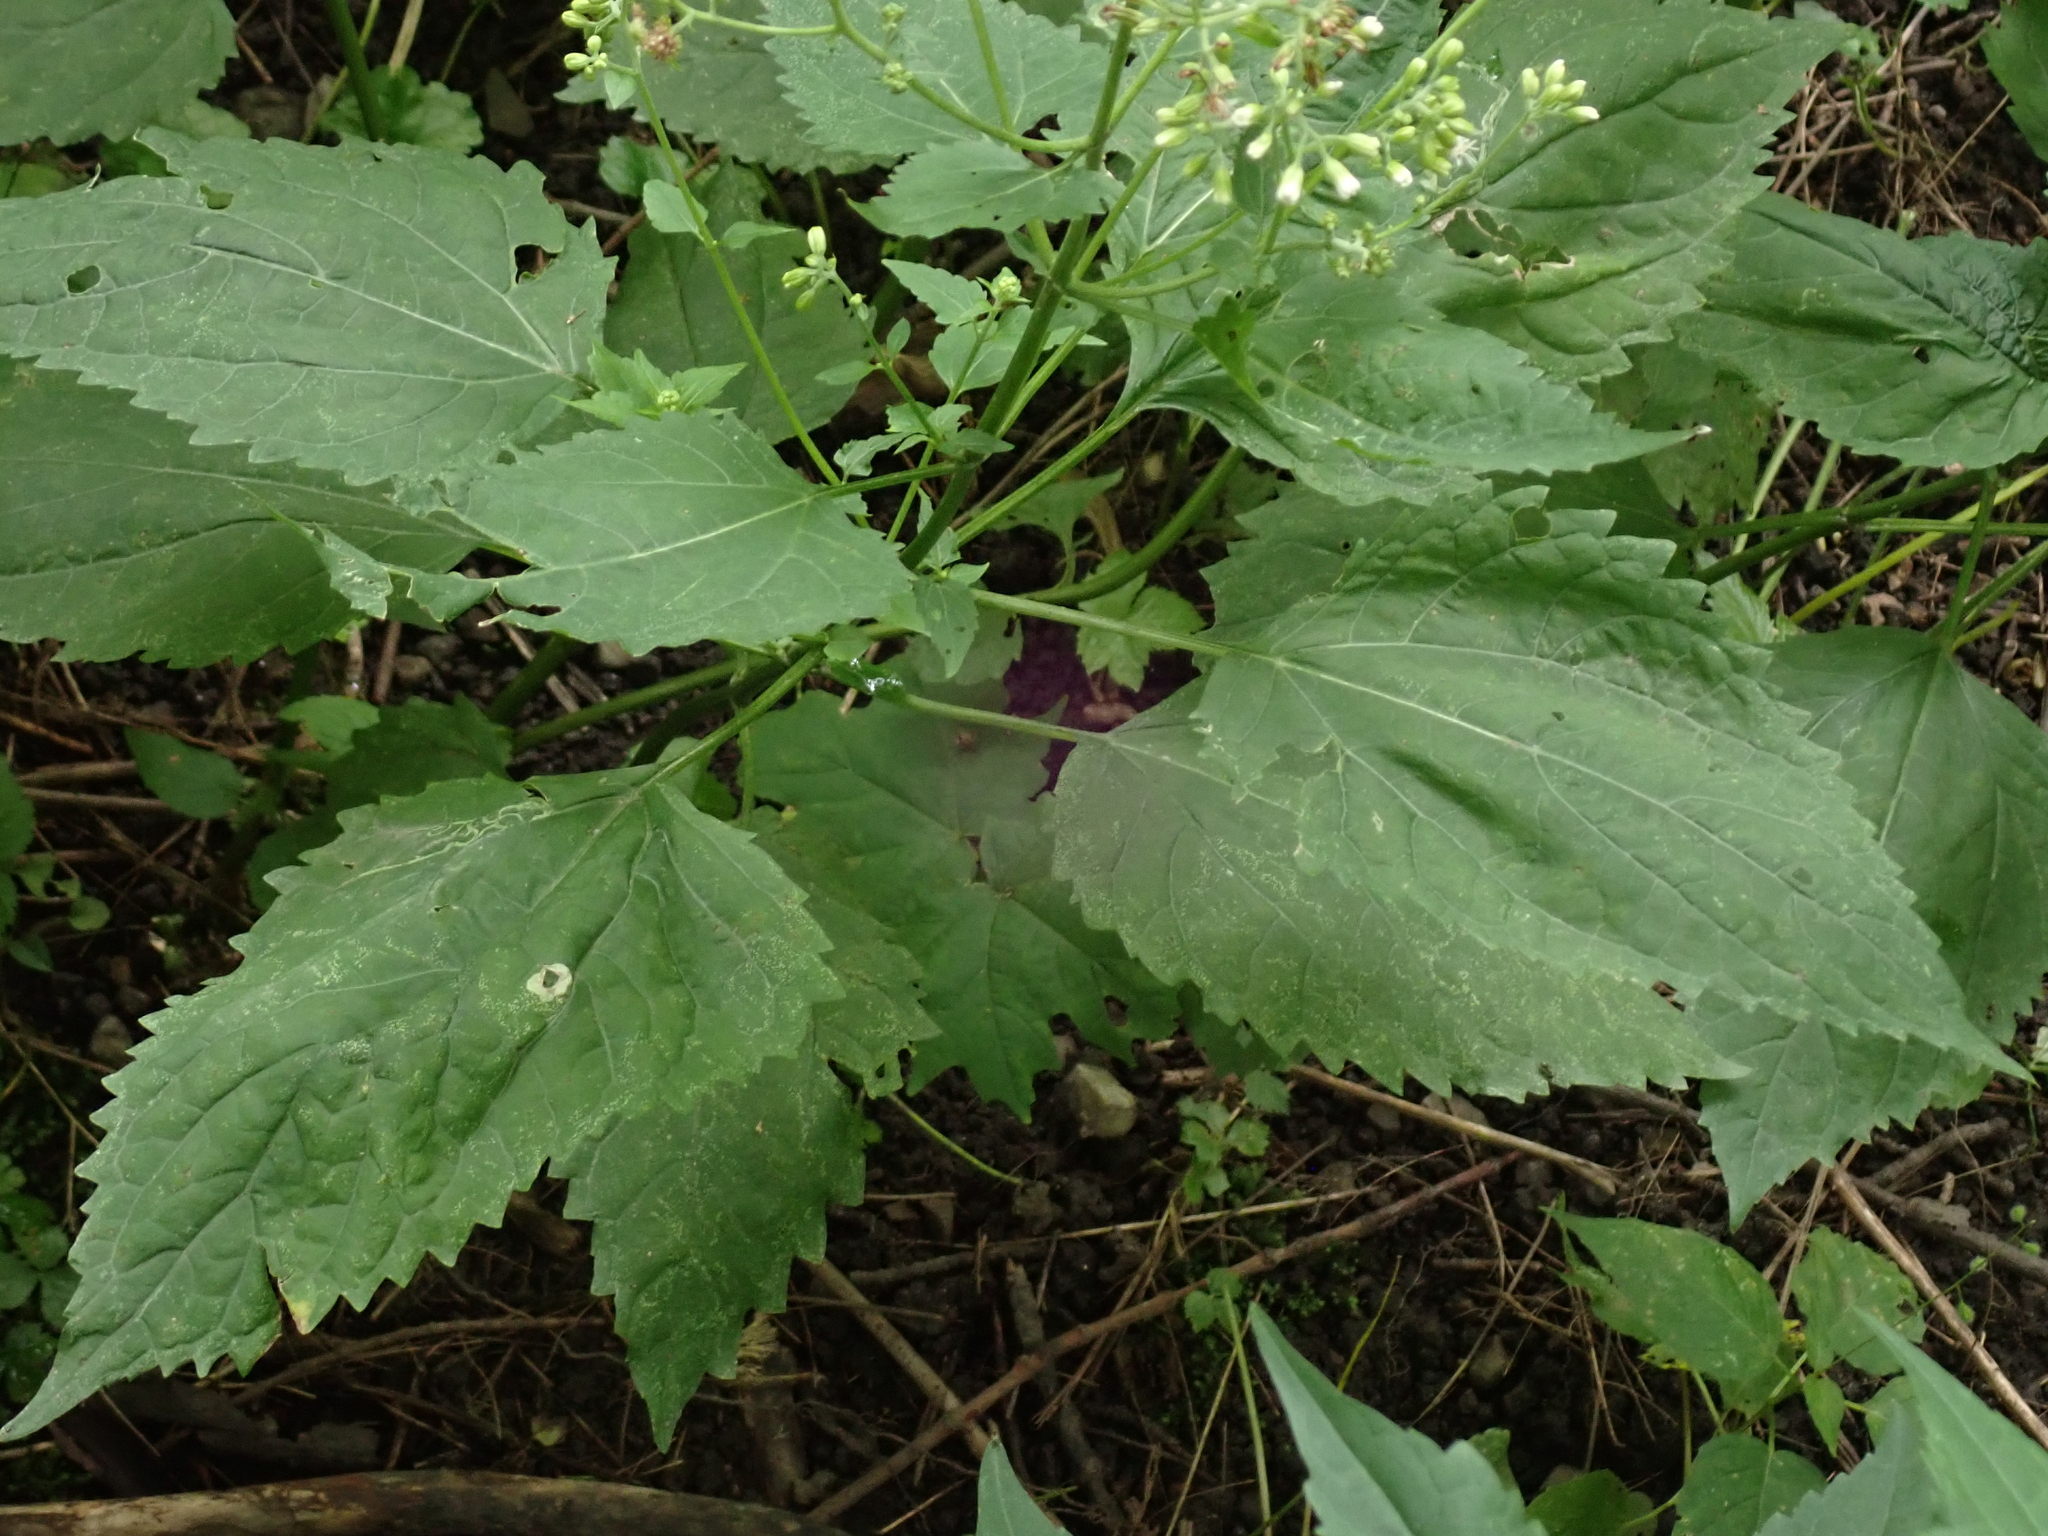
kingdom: Plantae
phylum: Tracheophyta
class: Magnoliopsida
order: Asterales
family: Asteraceae
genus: Ageratina
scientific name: Ageratina altissima
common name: White snakeroot
